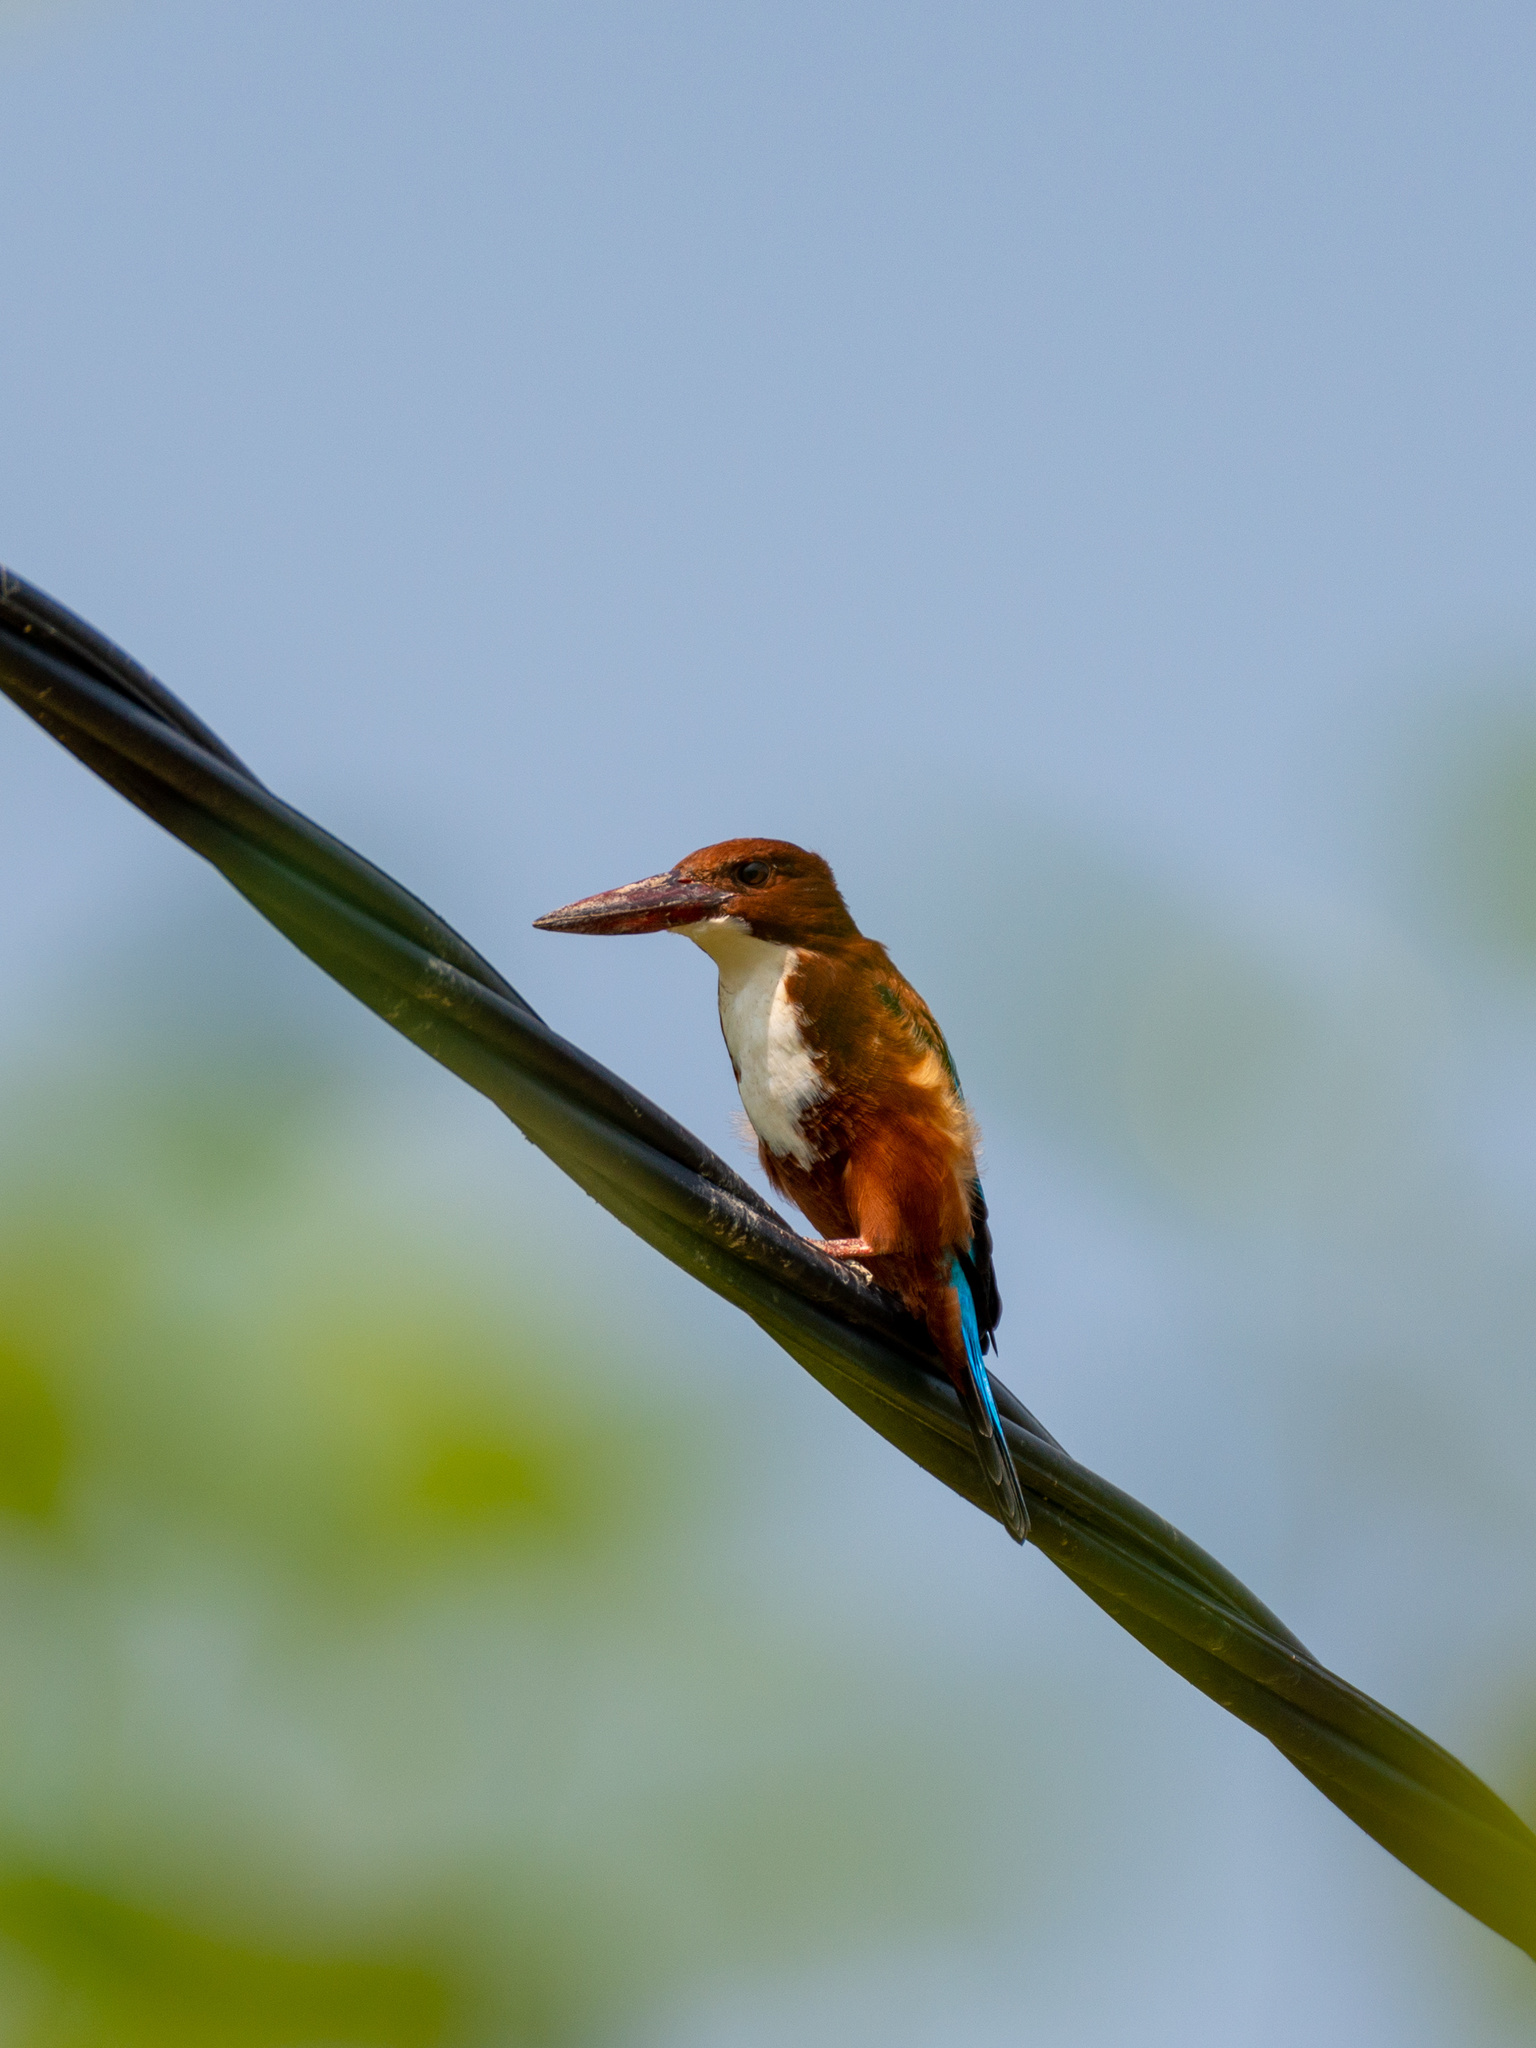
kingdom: Animalia
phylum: Chordata
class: Aves
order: Coraciiformes
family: Alcedinidae
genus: Halcyon
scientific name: Halcyon smyrnensis
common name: White-throated kingfisher
